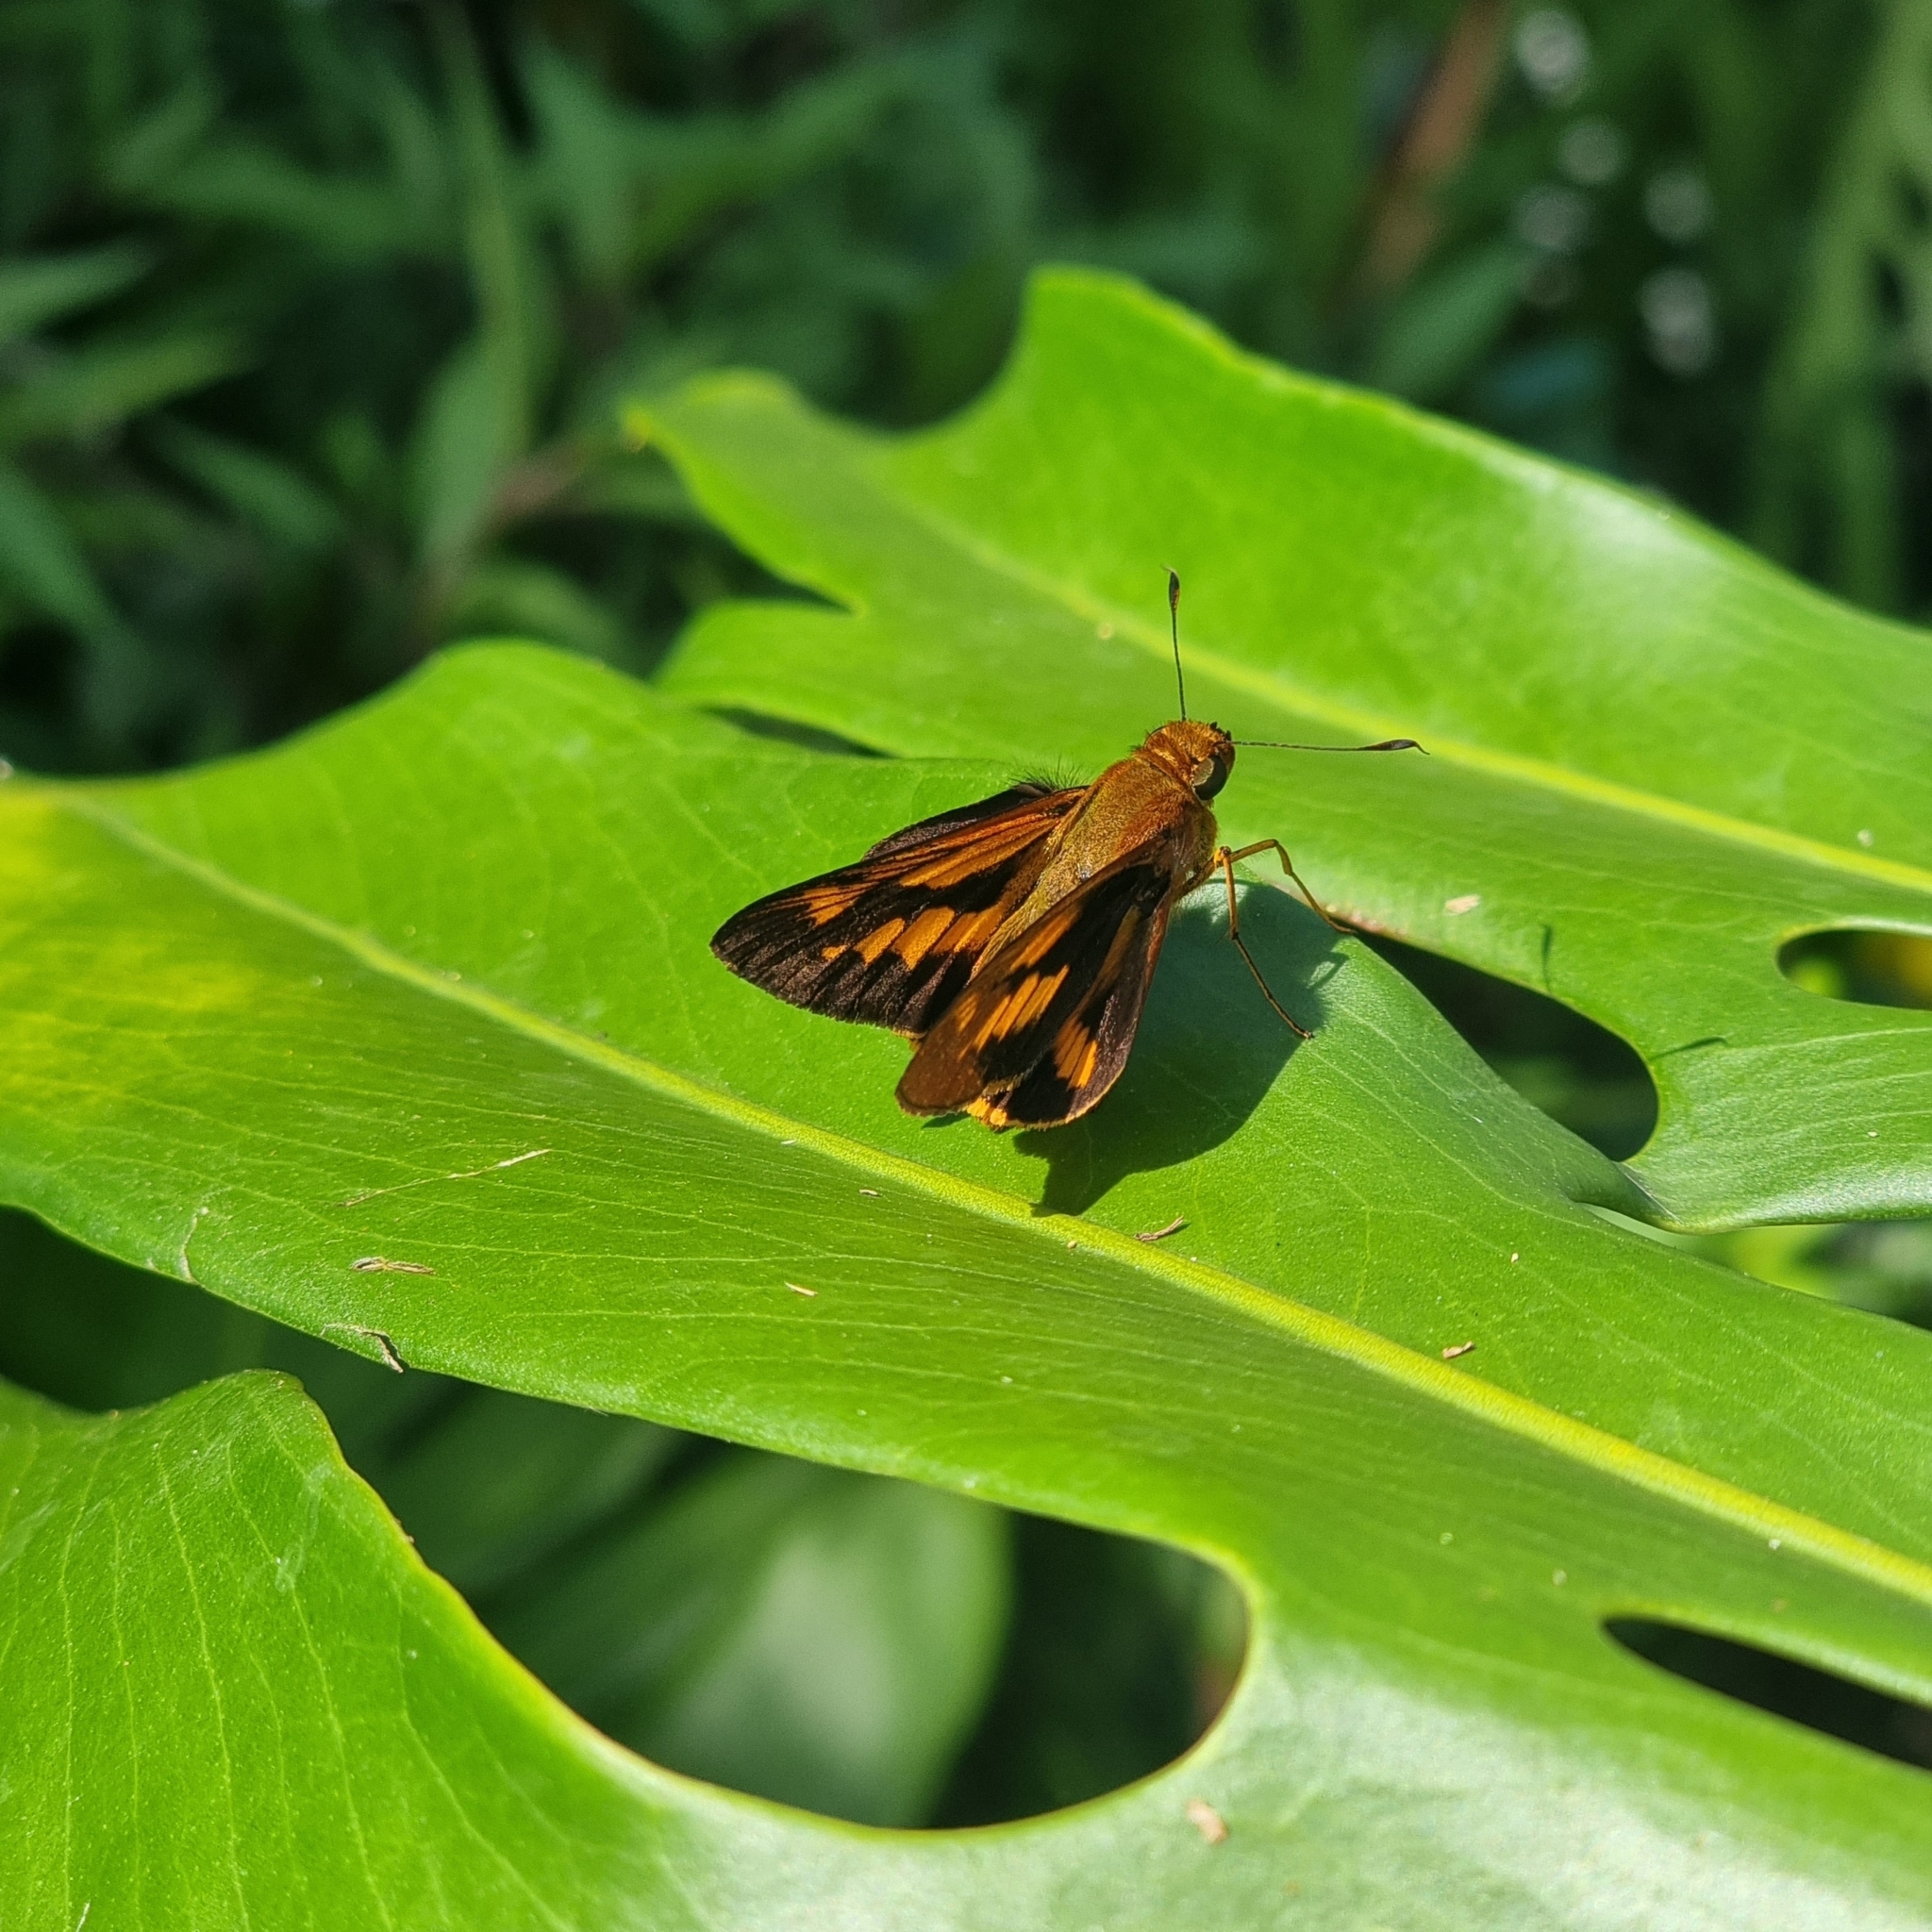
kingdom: Animalia
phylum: Arthropoda
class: Insecta
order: Lepidoptera
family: Hesperiidae
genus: Cephrenes
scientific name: Cephrenes augiades
